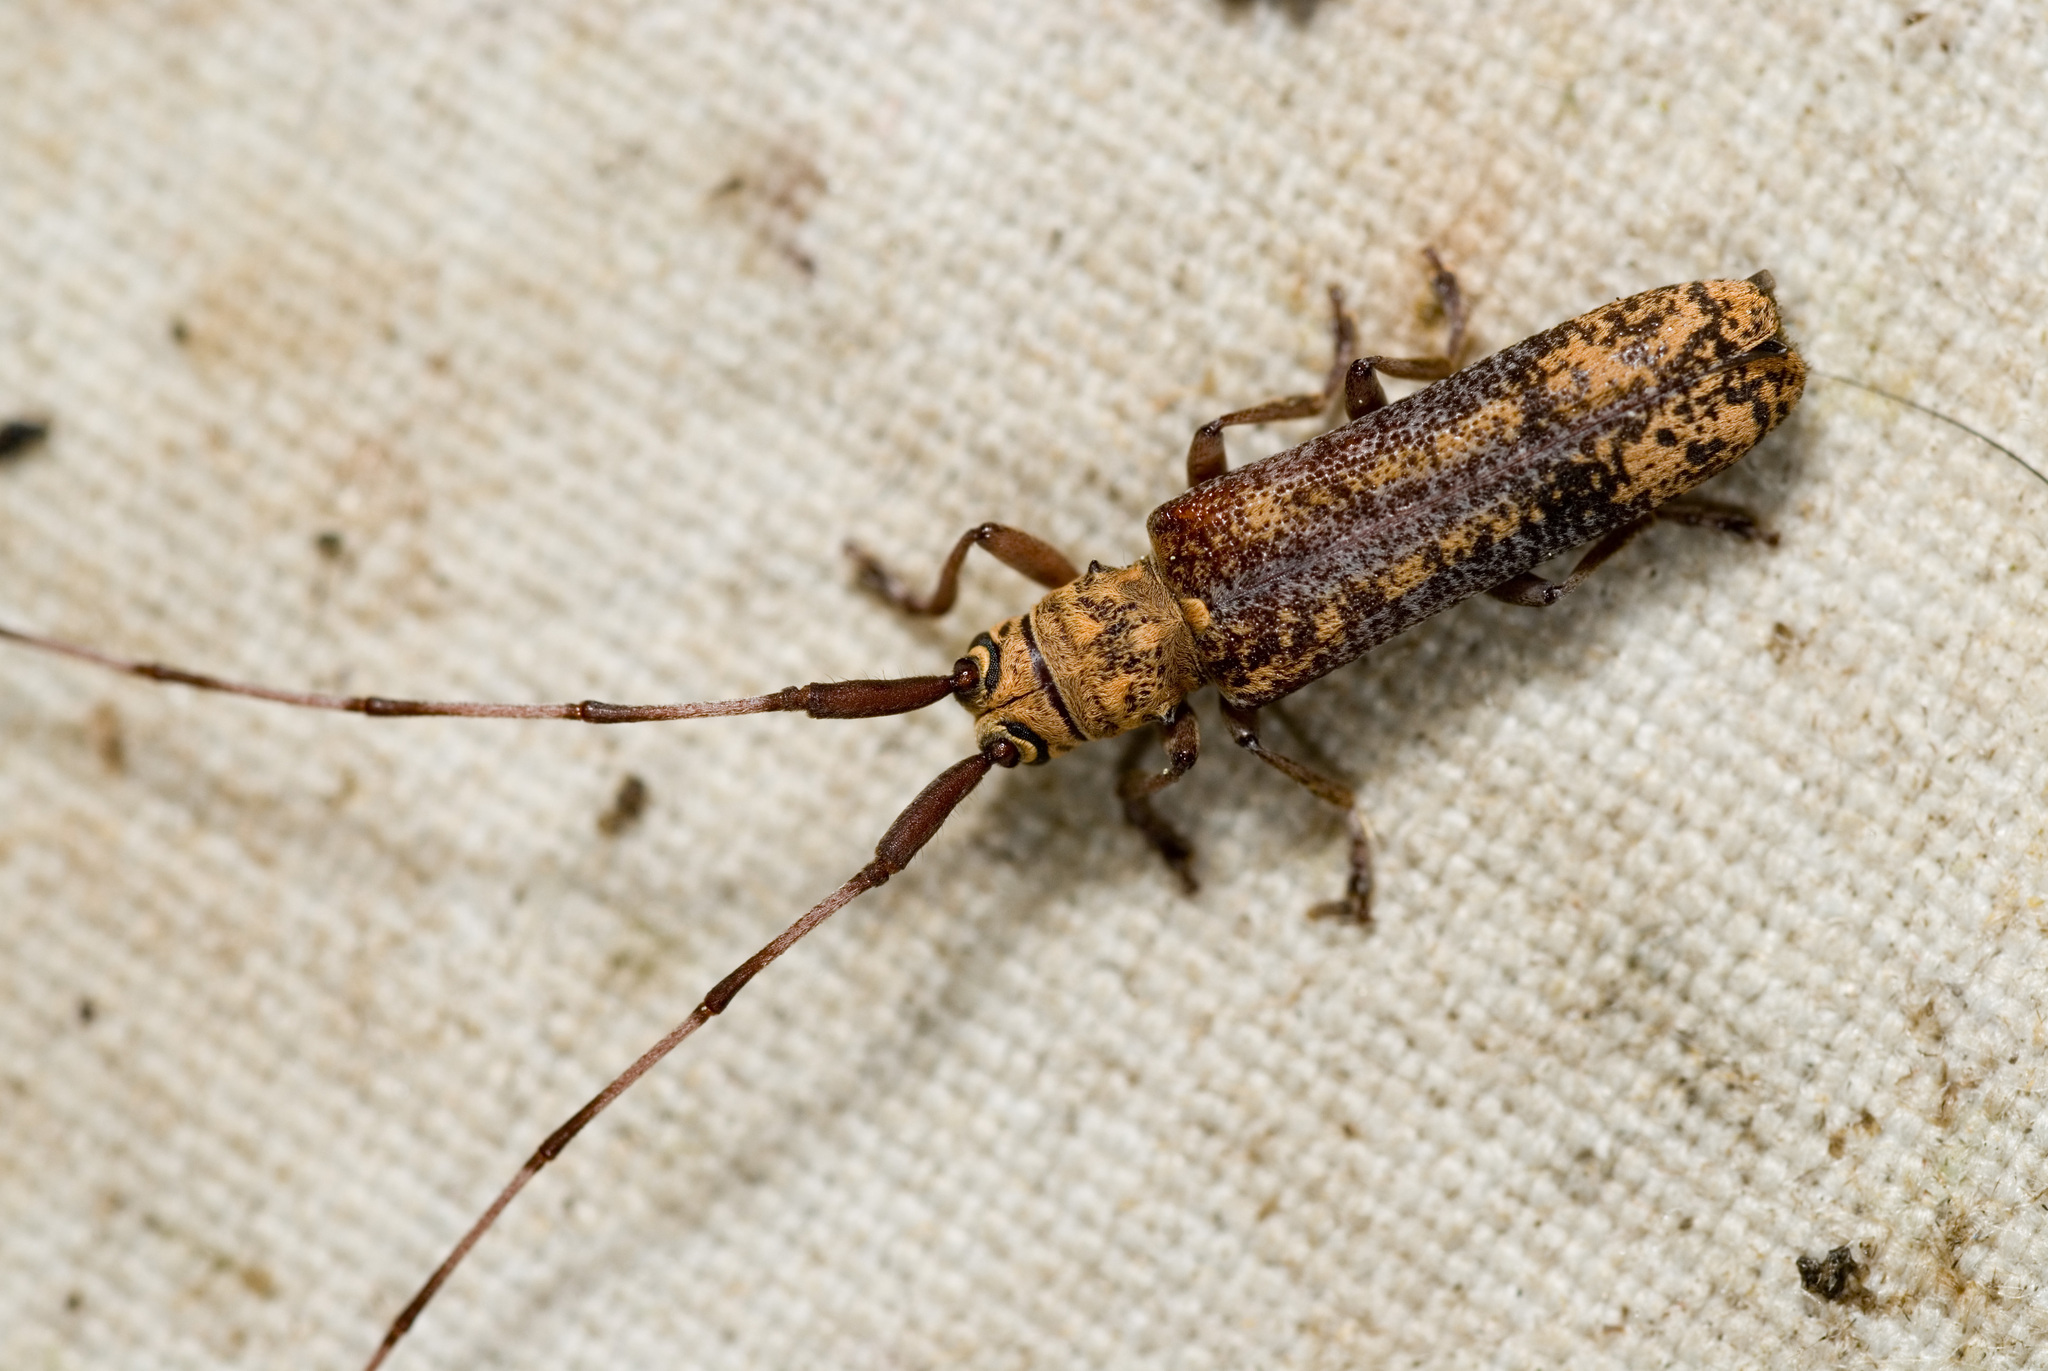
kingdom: Animalia
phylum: Arthropoda
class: Insecta
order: Coleoptera
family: Cerambycidae
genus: Paruraecha
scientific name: Paruraecha submarmorata
